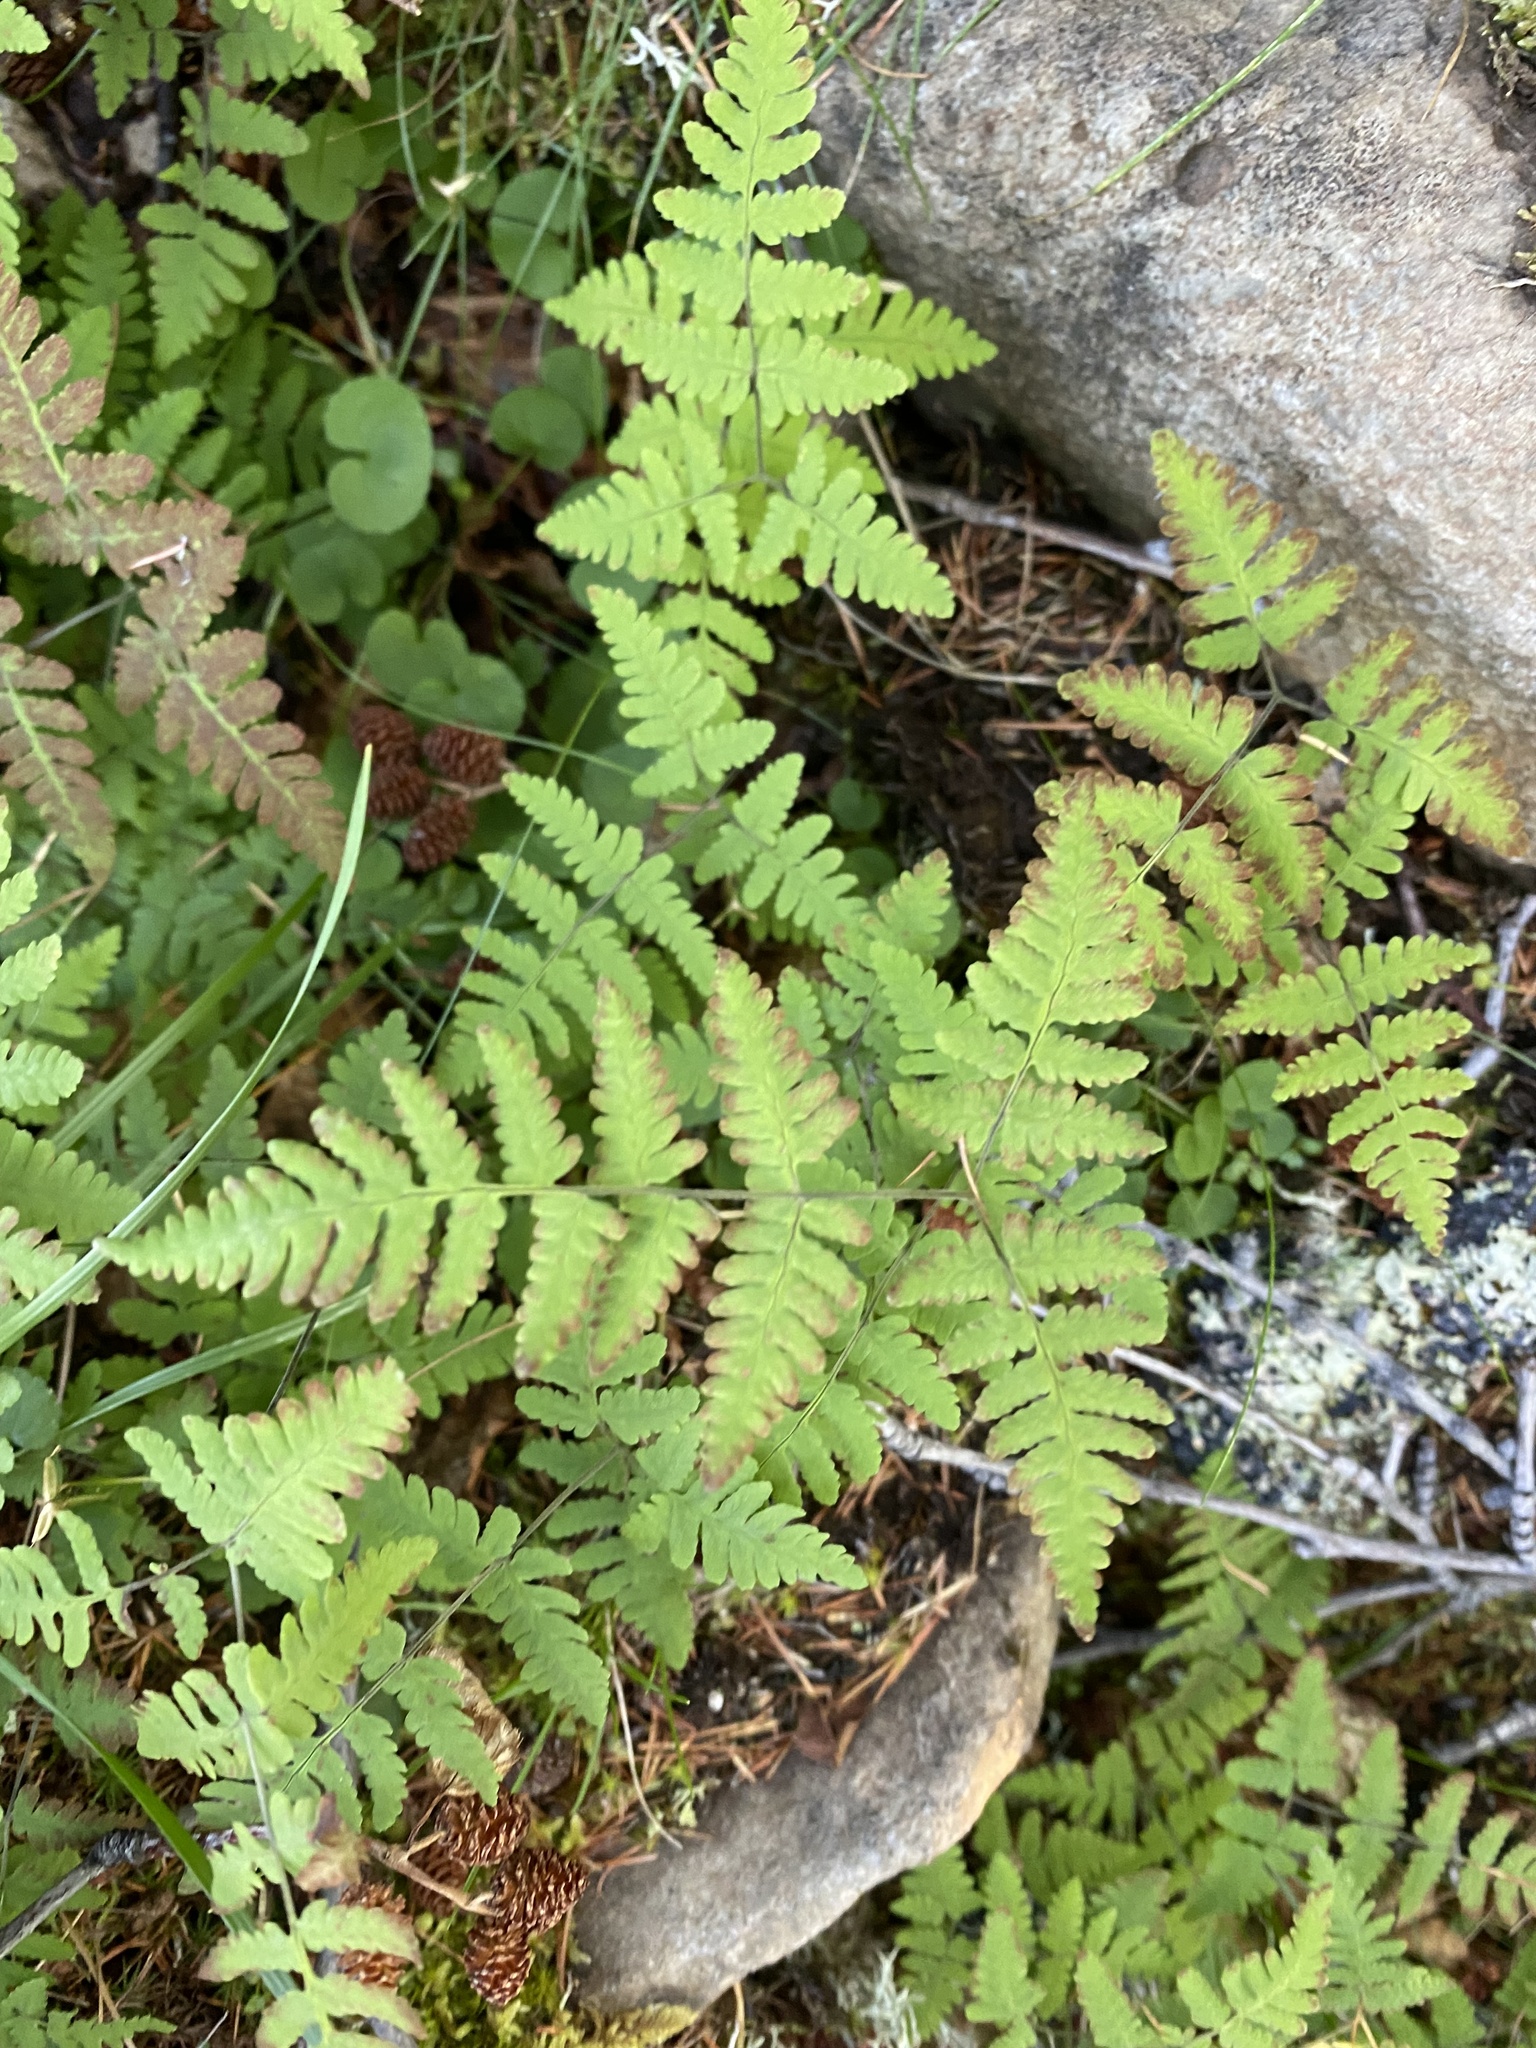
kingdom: Plantae
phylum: Tracheophyta
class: Polypodiopsida
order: Polypodiales
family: Cystopteridaceae
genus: Gymnocarpium
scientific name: Gymnocarpium jessoense
